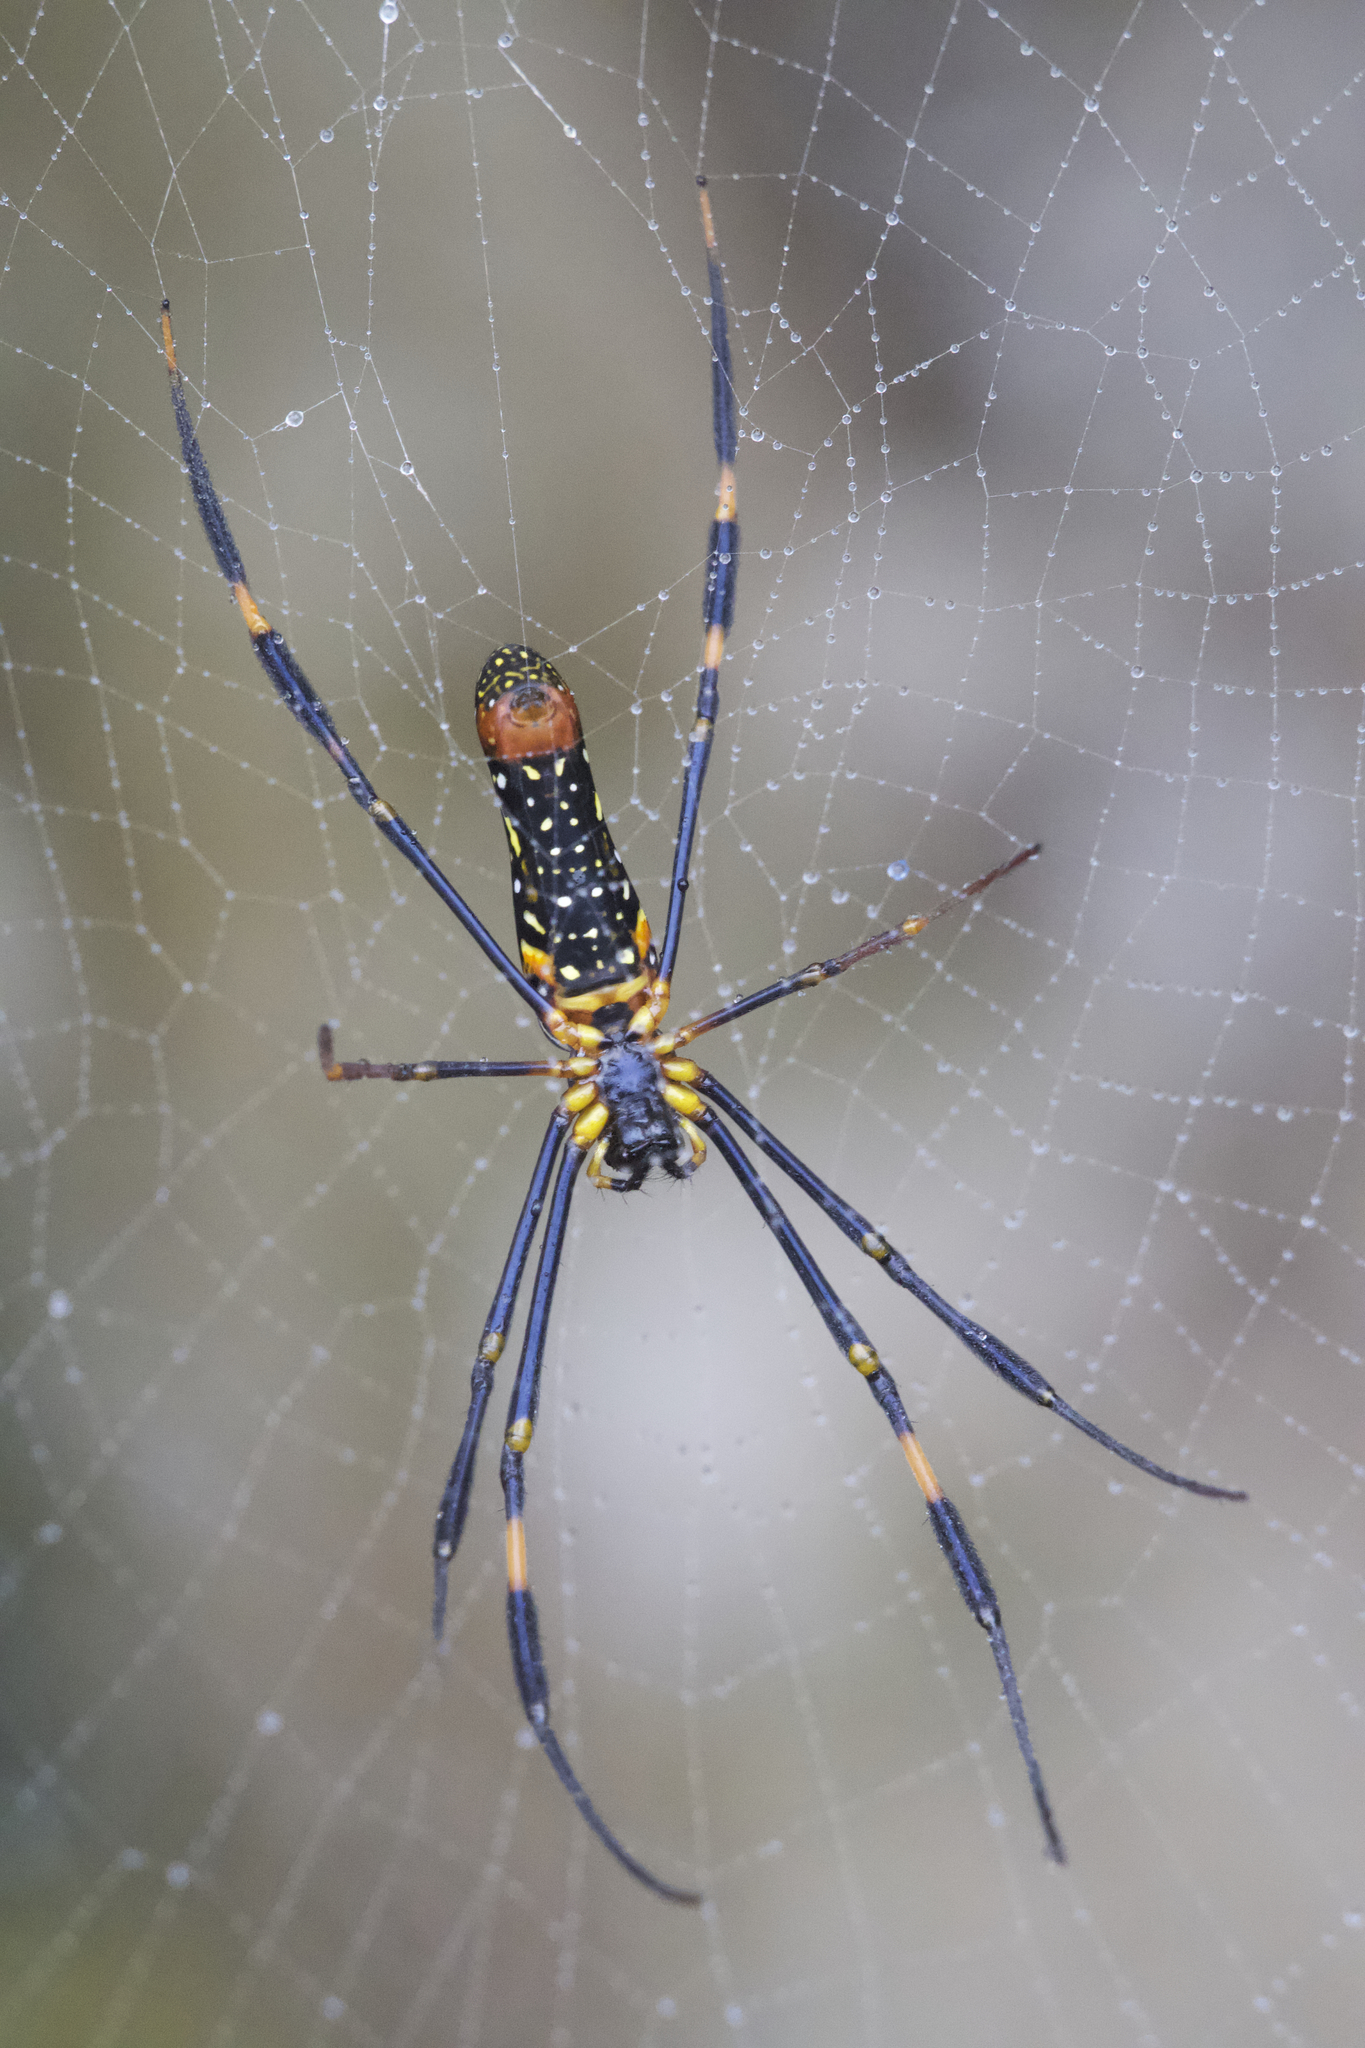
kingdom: Animalia
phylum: Arthropoda
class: Arachnida
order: Araneae
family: Araneidae
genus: Nephila
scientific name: Nephila pilipes
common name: Giant golden orb weaver
